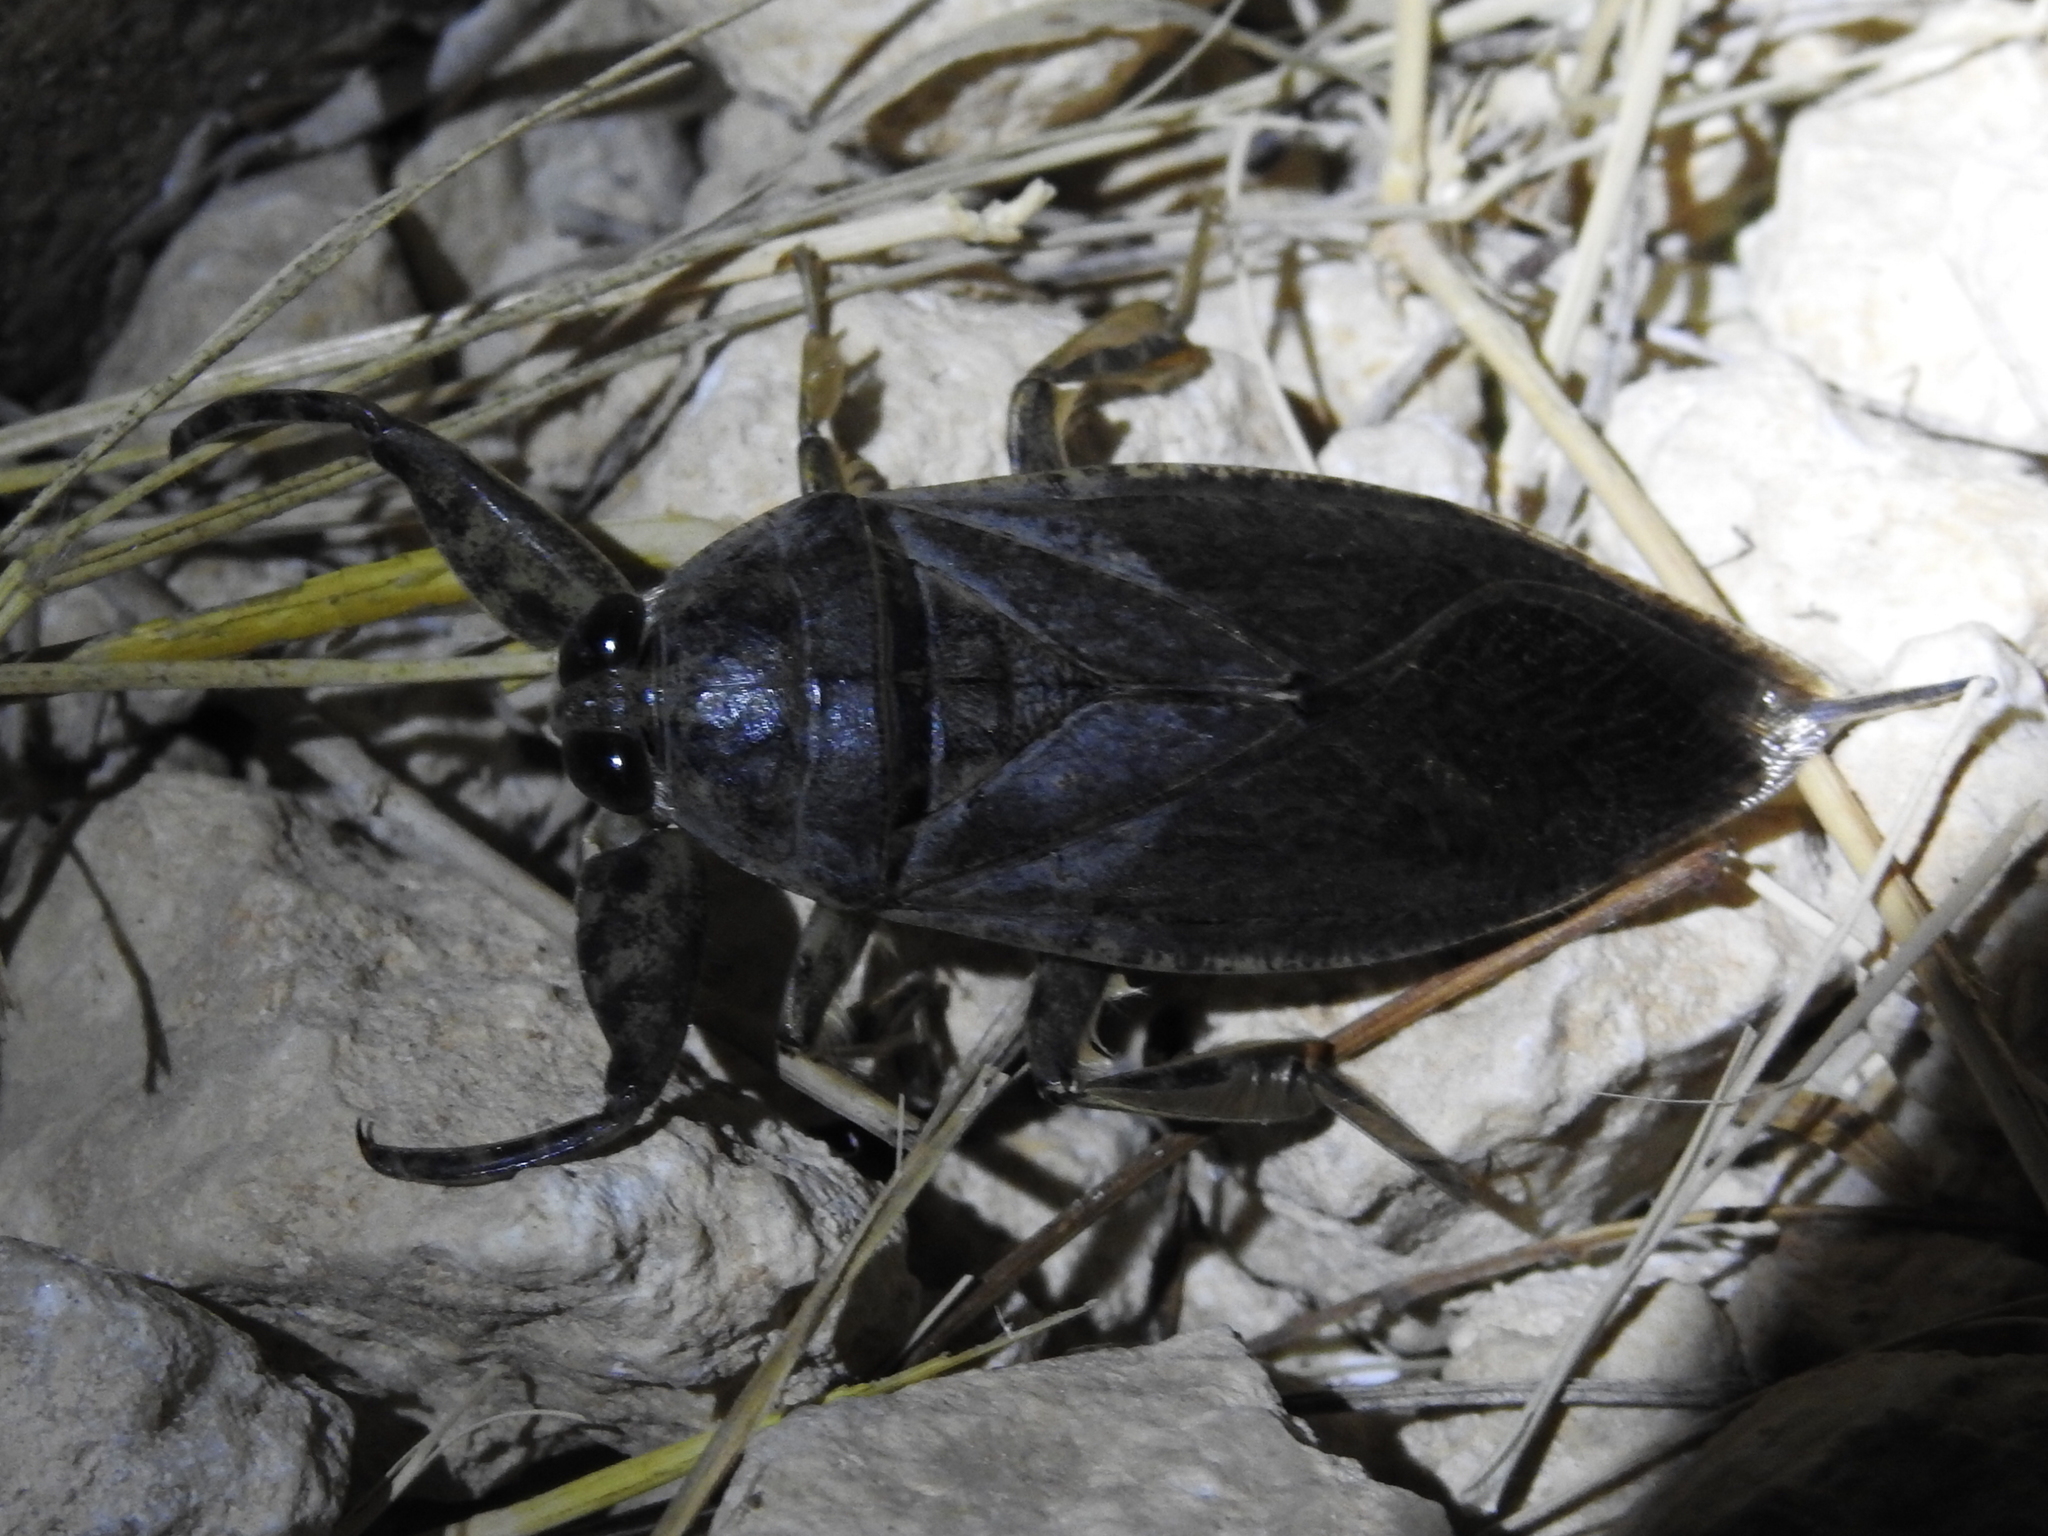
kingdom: Animalia
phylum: Arthropoda
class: Insecta
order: Hemiptera
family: Belostomatidae
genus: Lethocerus
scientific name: Lethocerus medius
